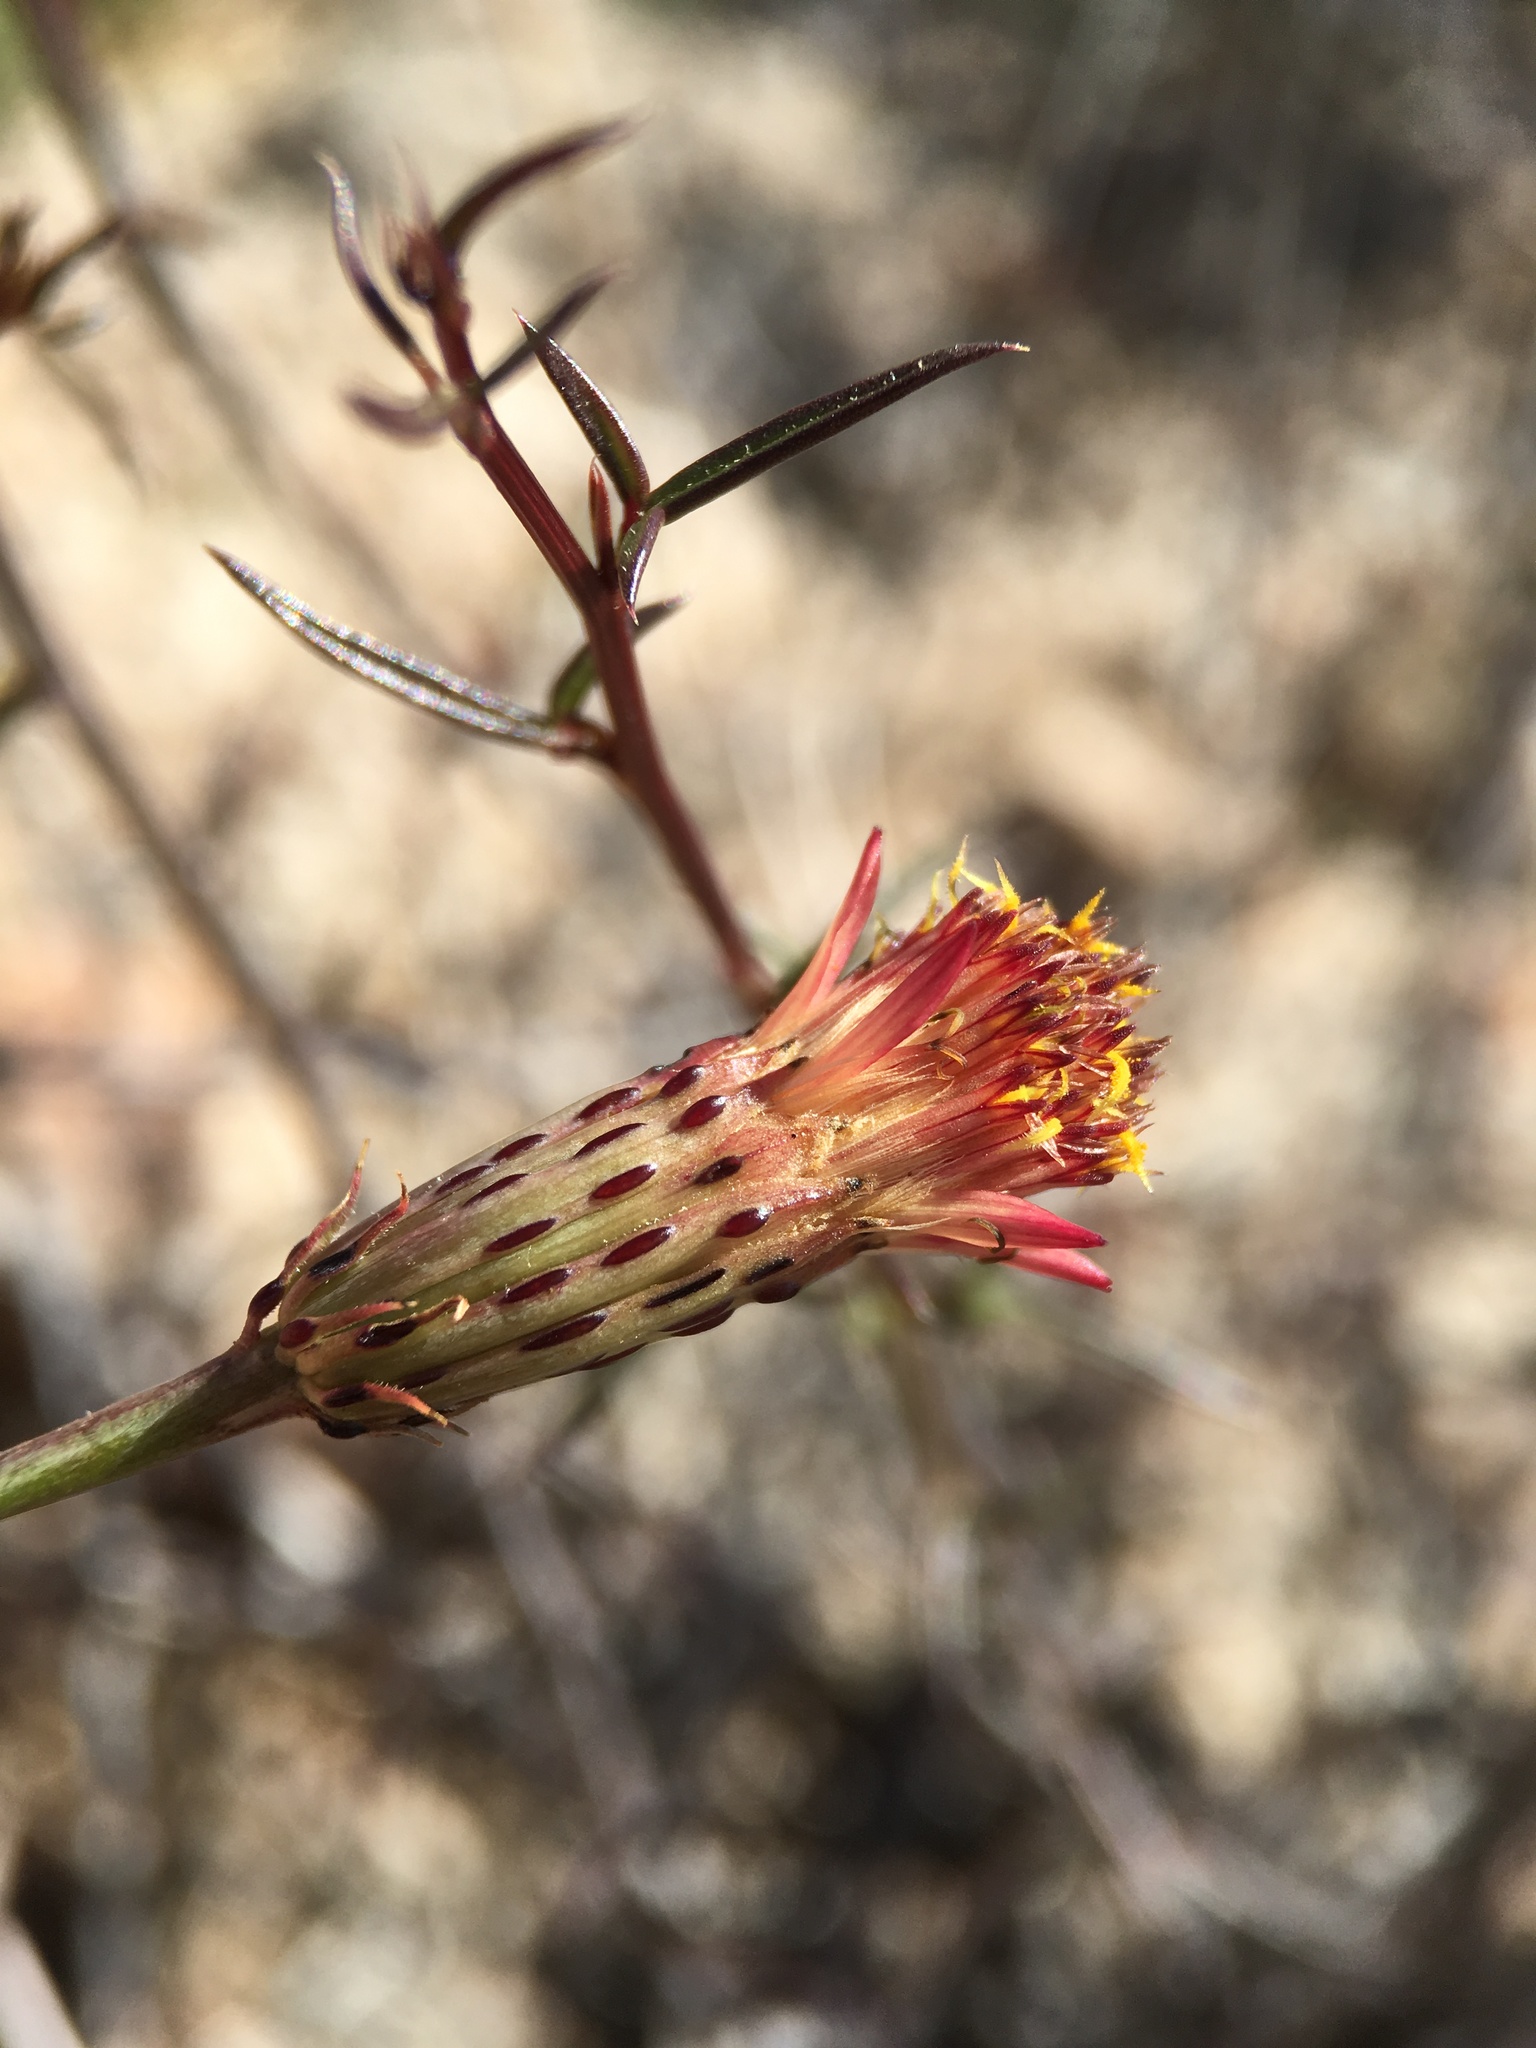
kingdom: Plantae
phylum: Tracheophyta
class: Magnoliopsida
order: Asterales
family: Asteraceae
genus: Adenophyllum
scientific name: Adenophyllum porophylloides
